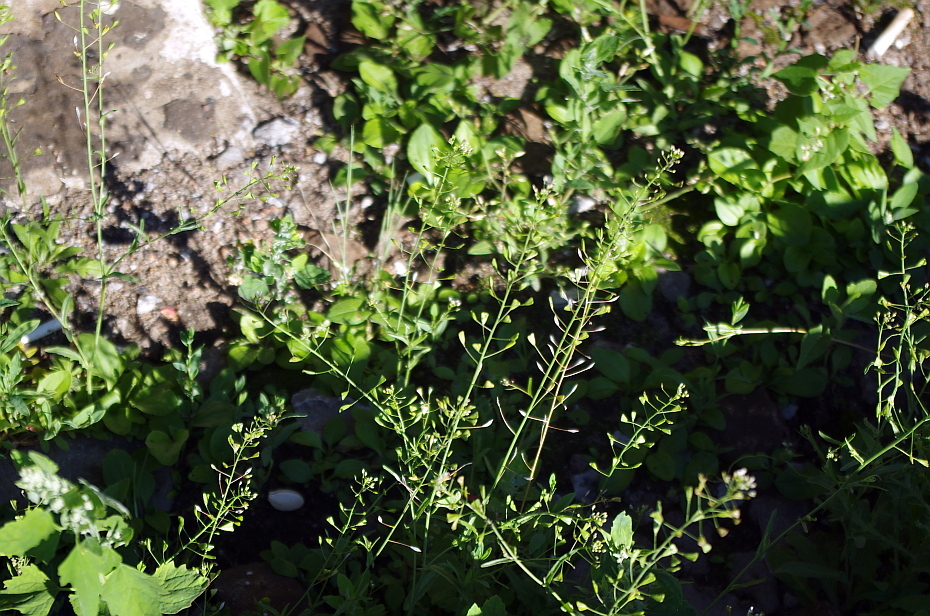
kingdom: Plantae
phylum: Tracheophyta
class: Magnoliopsida
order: Brassicales
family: Brassicaceae
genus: Capsella
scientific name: Capsella bursa-pastoris
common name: Shepherd's purse
